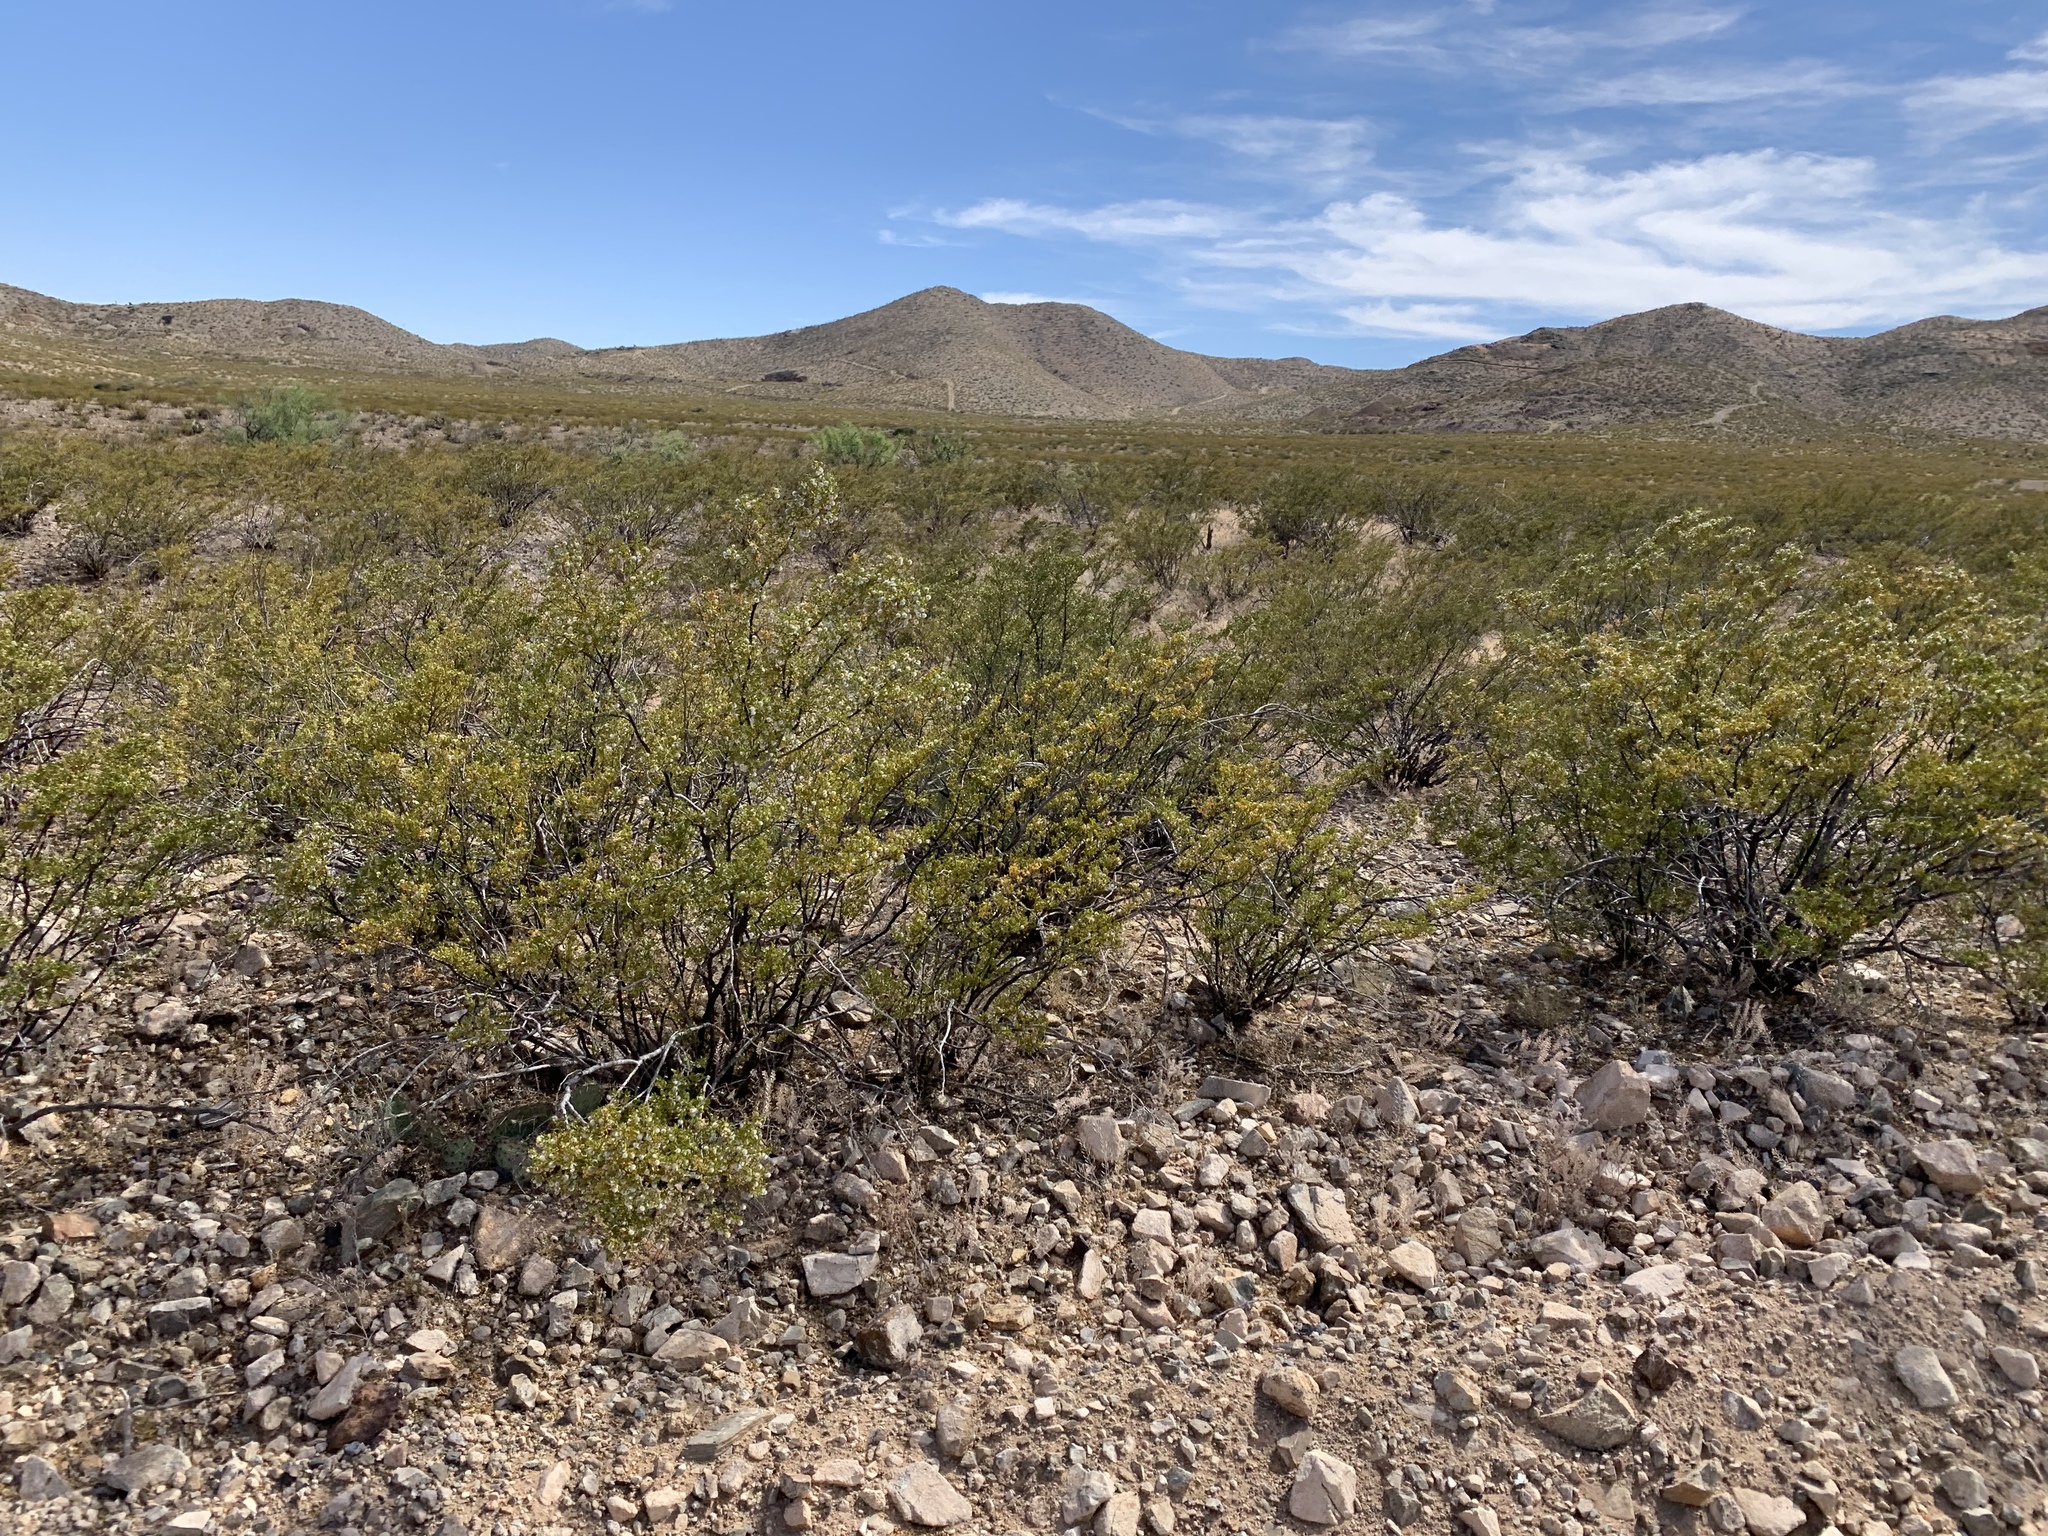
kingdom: Plantae
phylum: Tracheophyta
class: Magnoliopsida
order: Zygophyllales
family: Zygophyllaceae
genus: Larrea
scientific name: Larrea tridentata
